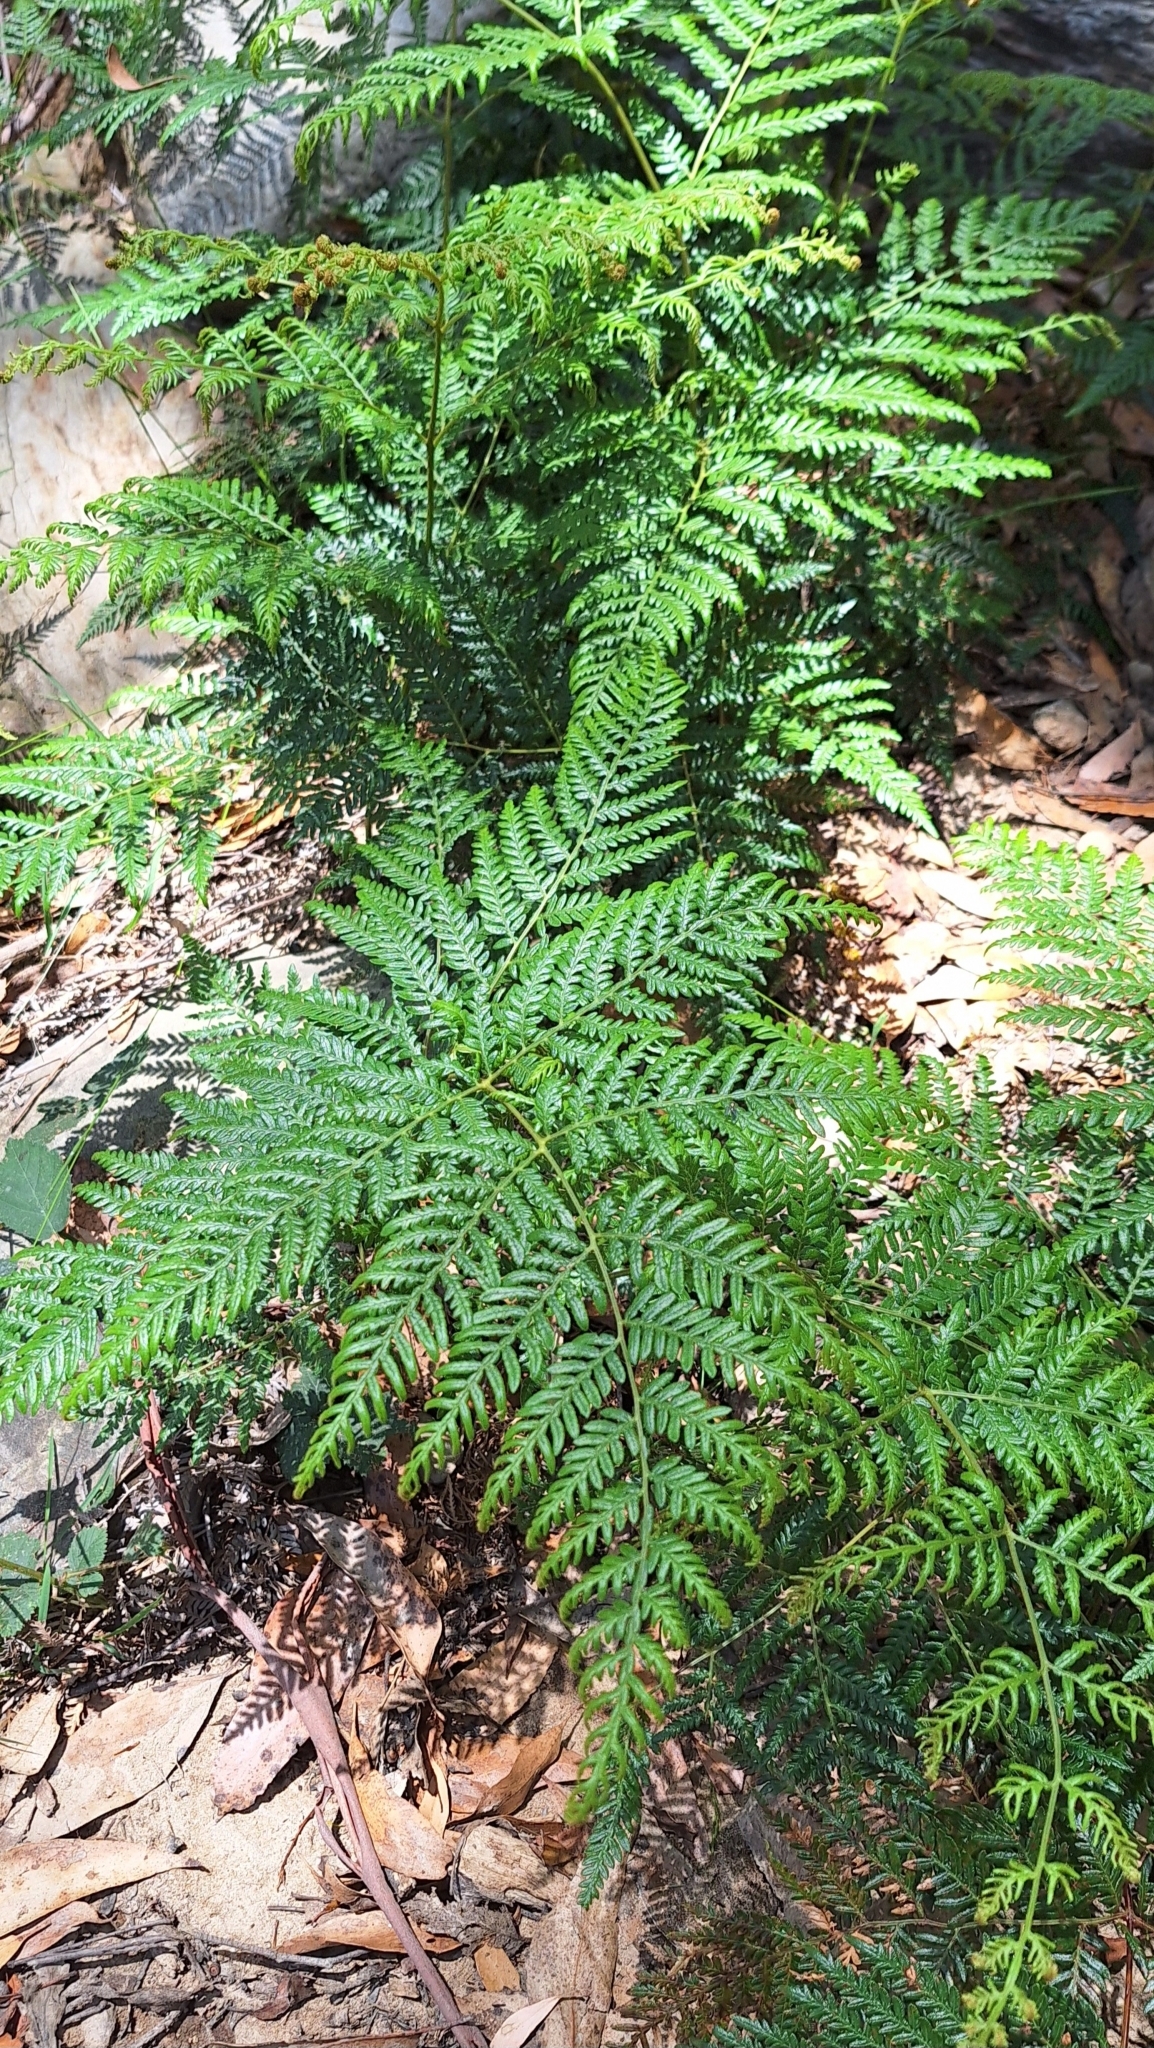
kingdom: Plantae
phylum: Tracheophyta
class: Polypodiopsida
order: Polypodiales
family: Dennstaedtiaceae
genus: Pteridium
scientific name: Pteridium esculentum
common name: Bracken fern
